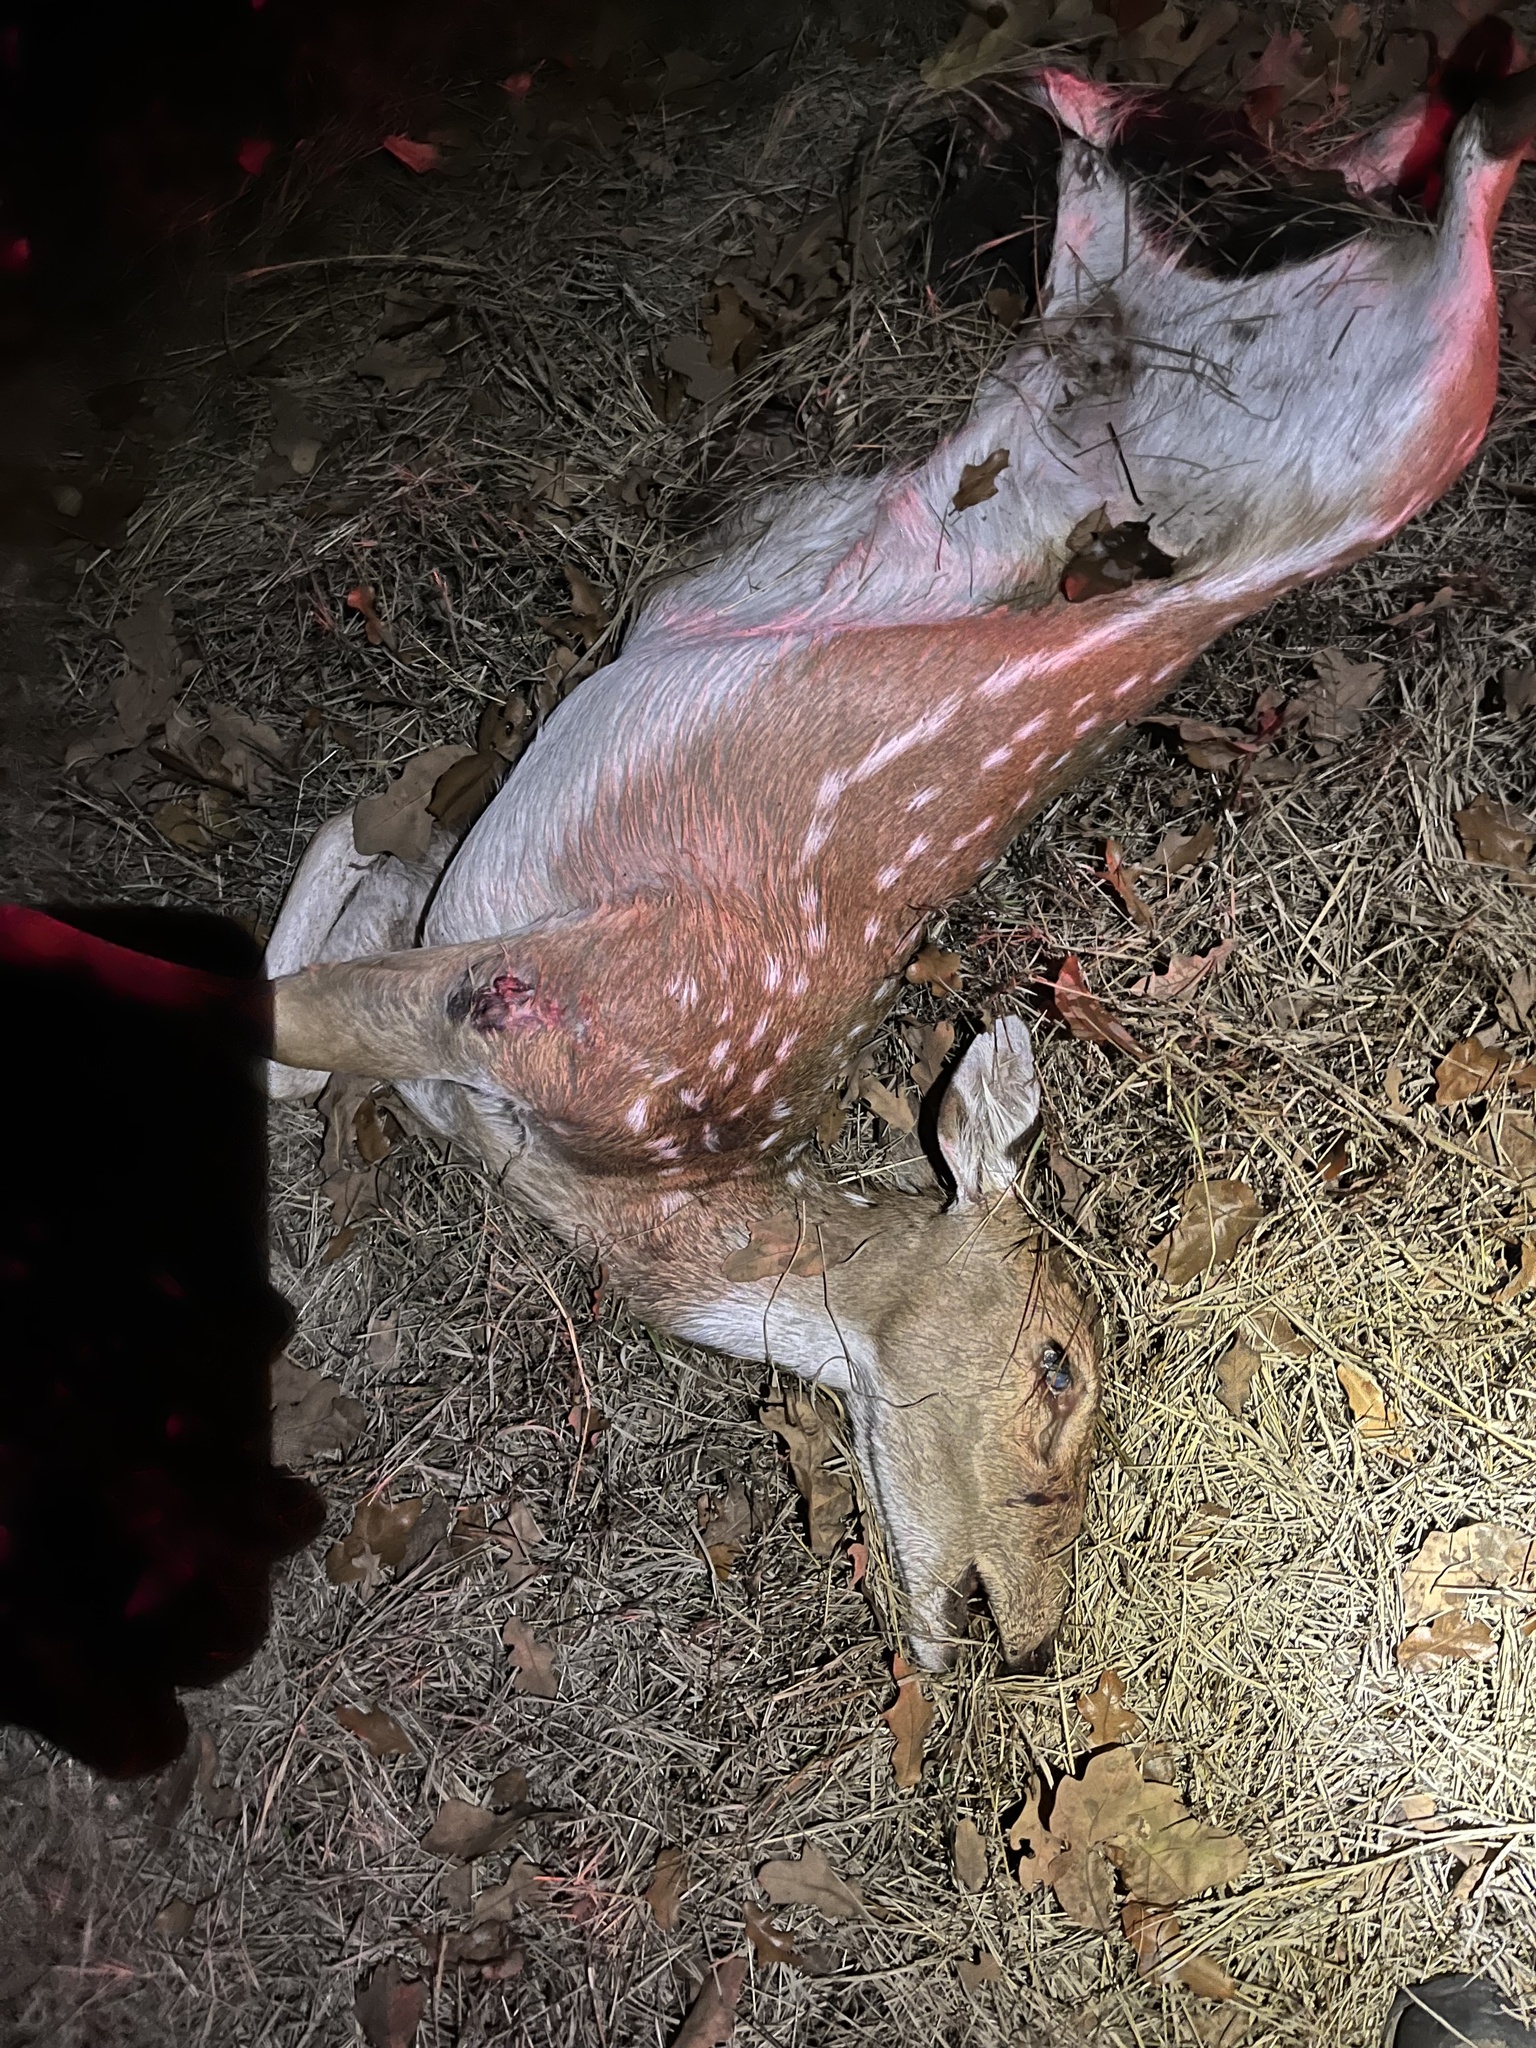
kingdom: Animalia
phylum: Chordata
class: Mammalia
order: Artiodactyla
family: Cervidae
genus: Axis
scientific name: Axis axis
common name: Chital
